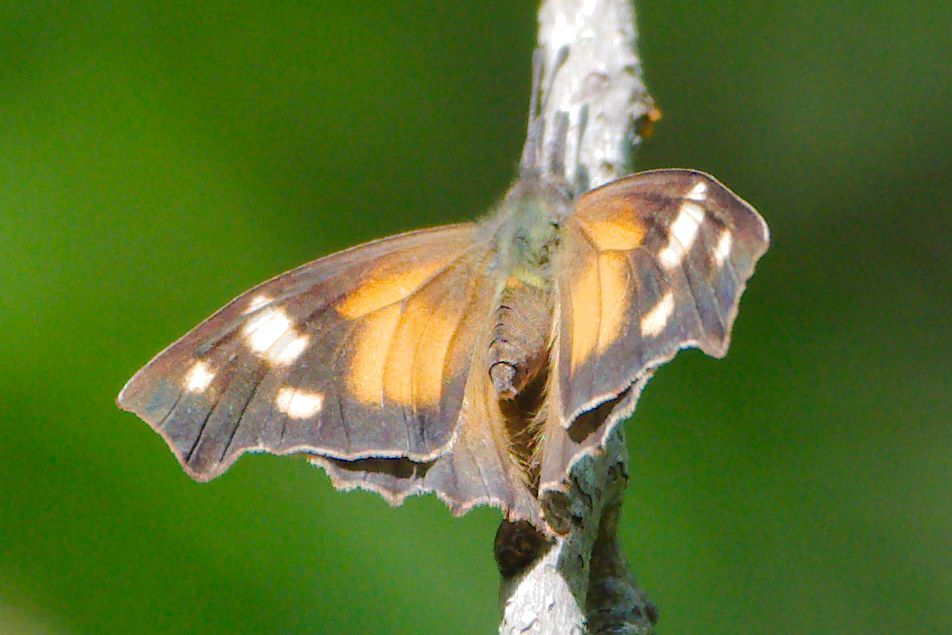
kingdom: Animalia
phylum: Arthropoda
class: Insecta
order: Lepidoptera
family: Nymphalidae
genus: Libytheana
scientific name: Libytheana carinenta
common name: American snout
